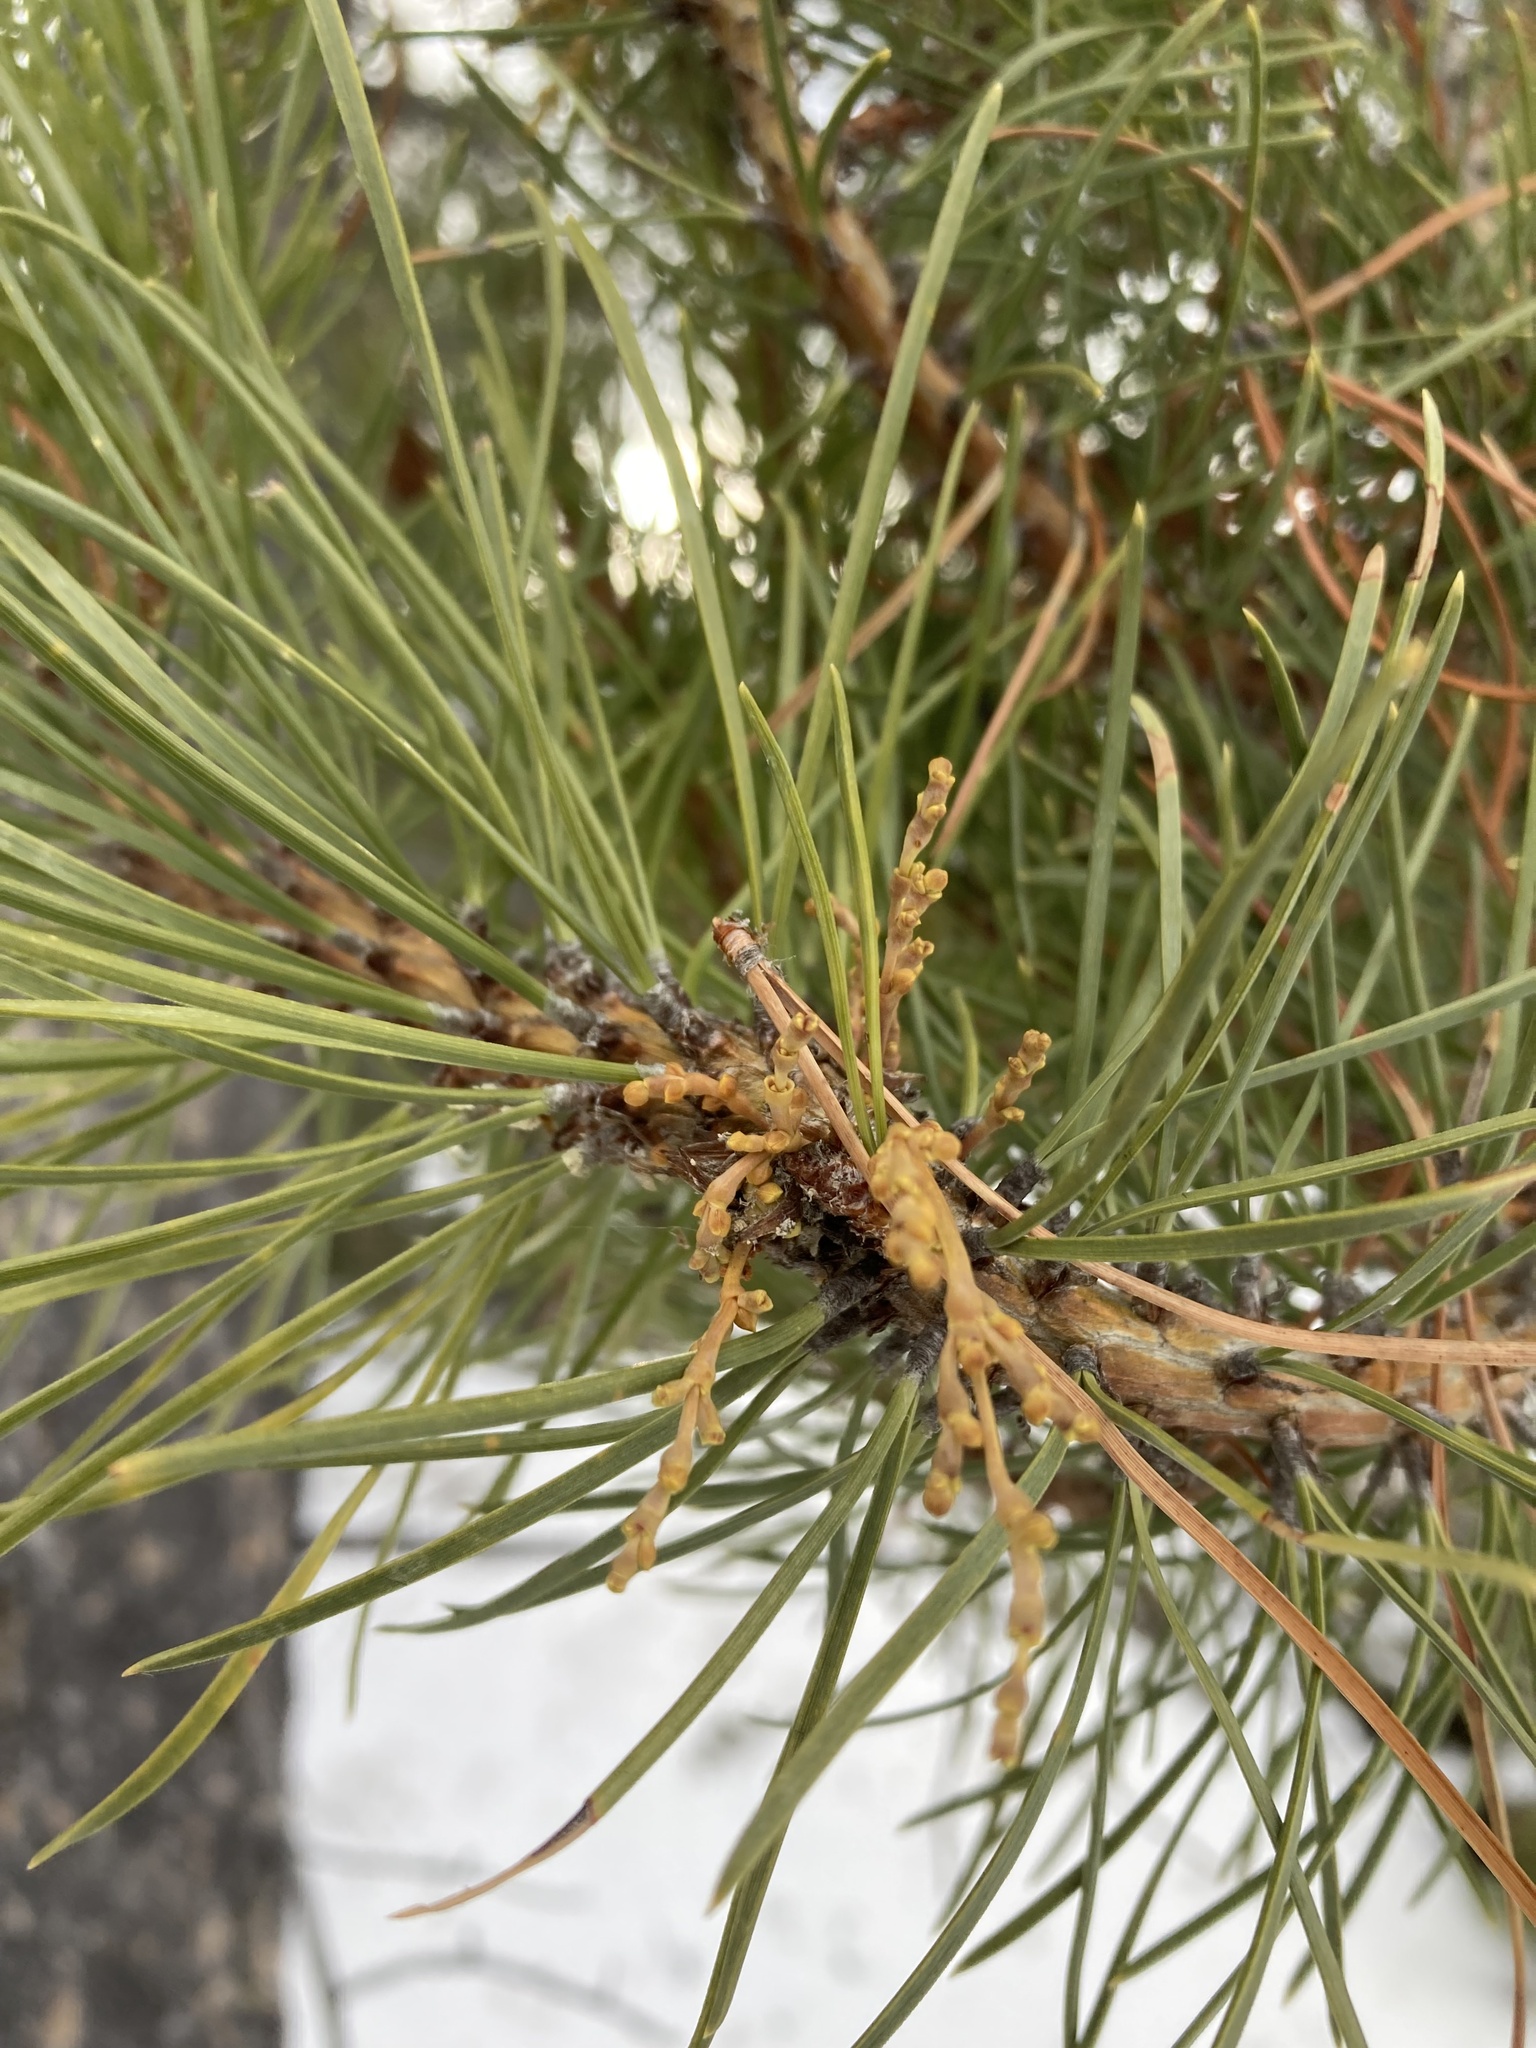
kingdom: Plantae
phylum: Tracheophyta
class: Magnoliopsida
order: Santalales
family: Viscaceae
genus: Arceuthobium
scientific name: Arceuthobium americanum
